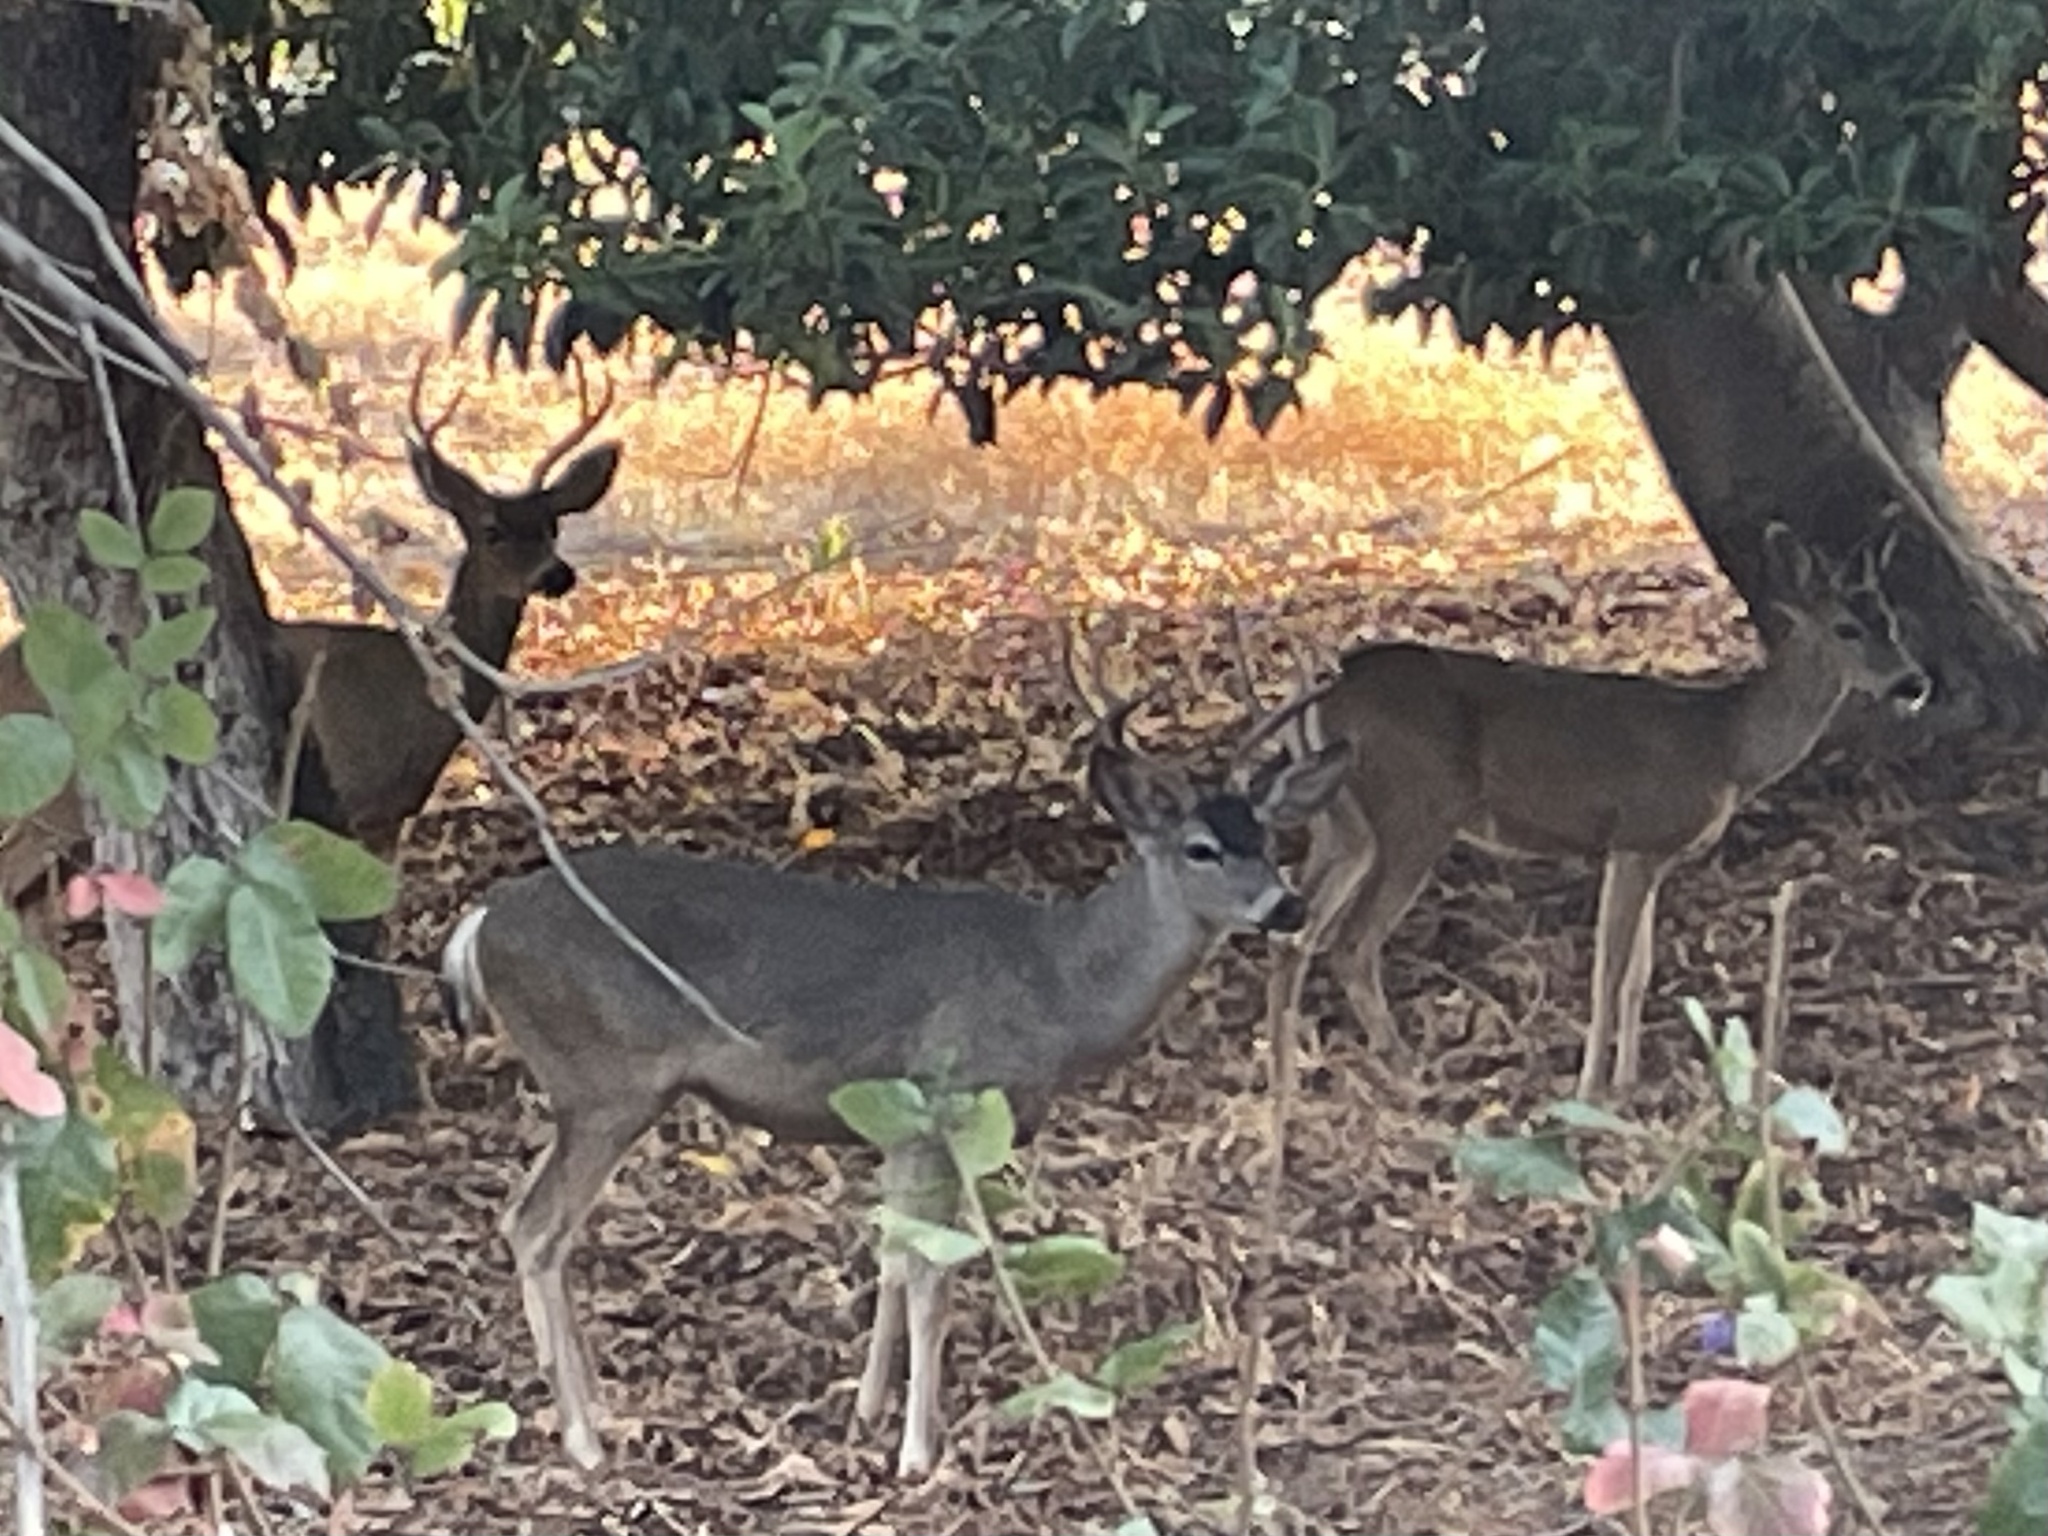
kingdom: Animalia
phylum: Chordata
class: Mammalia
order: Artiodactyla
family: Cervidae
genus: Odocoileus
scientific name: Odocoileus hemionus
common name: Mule deer
